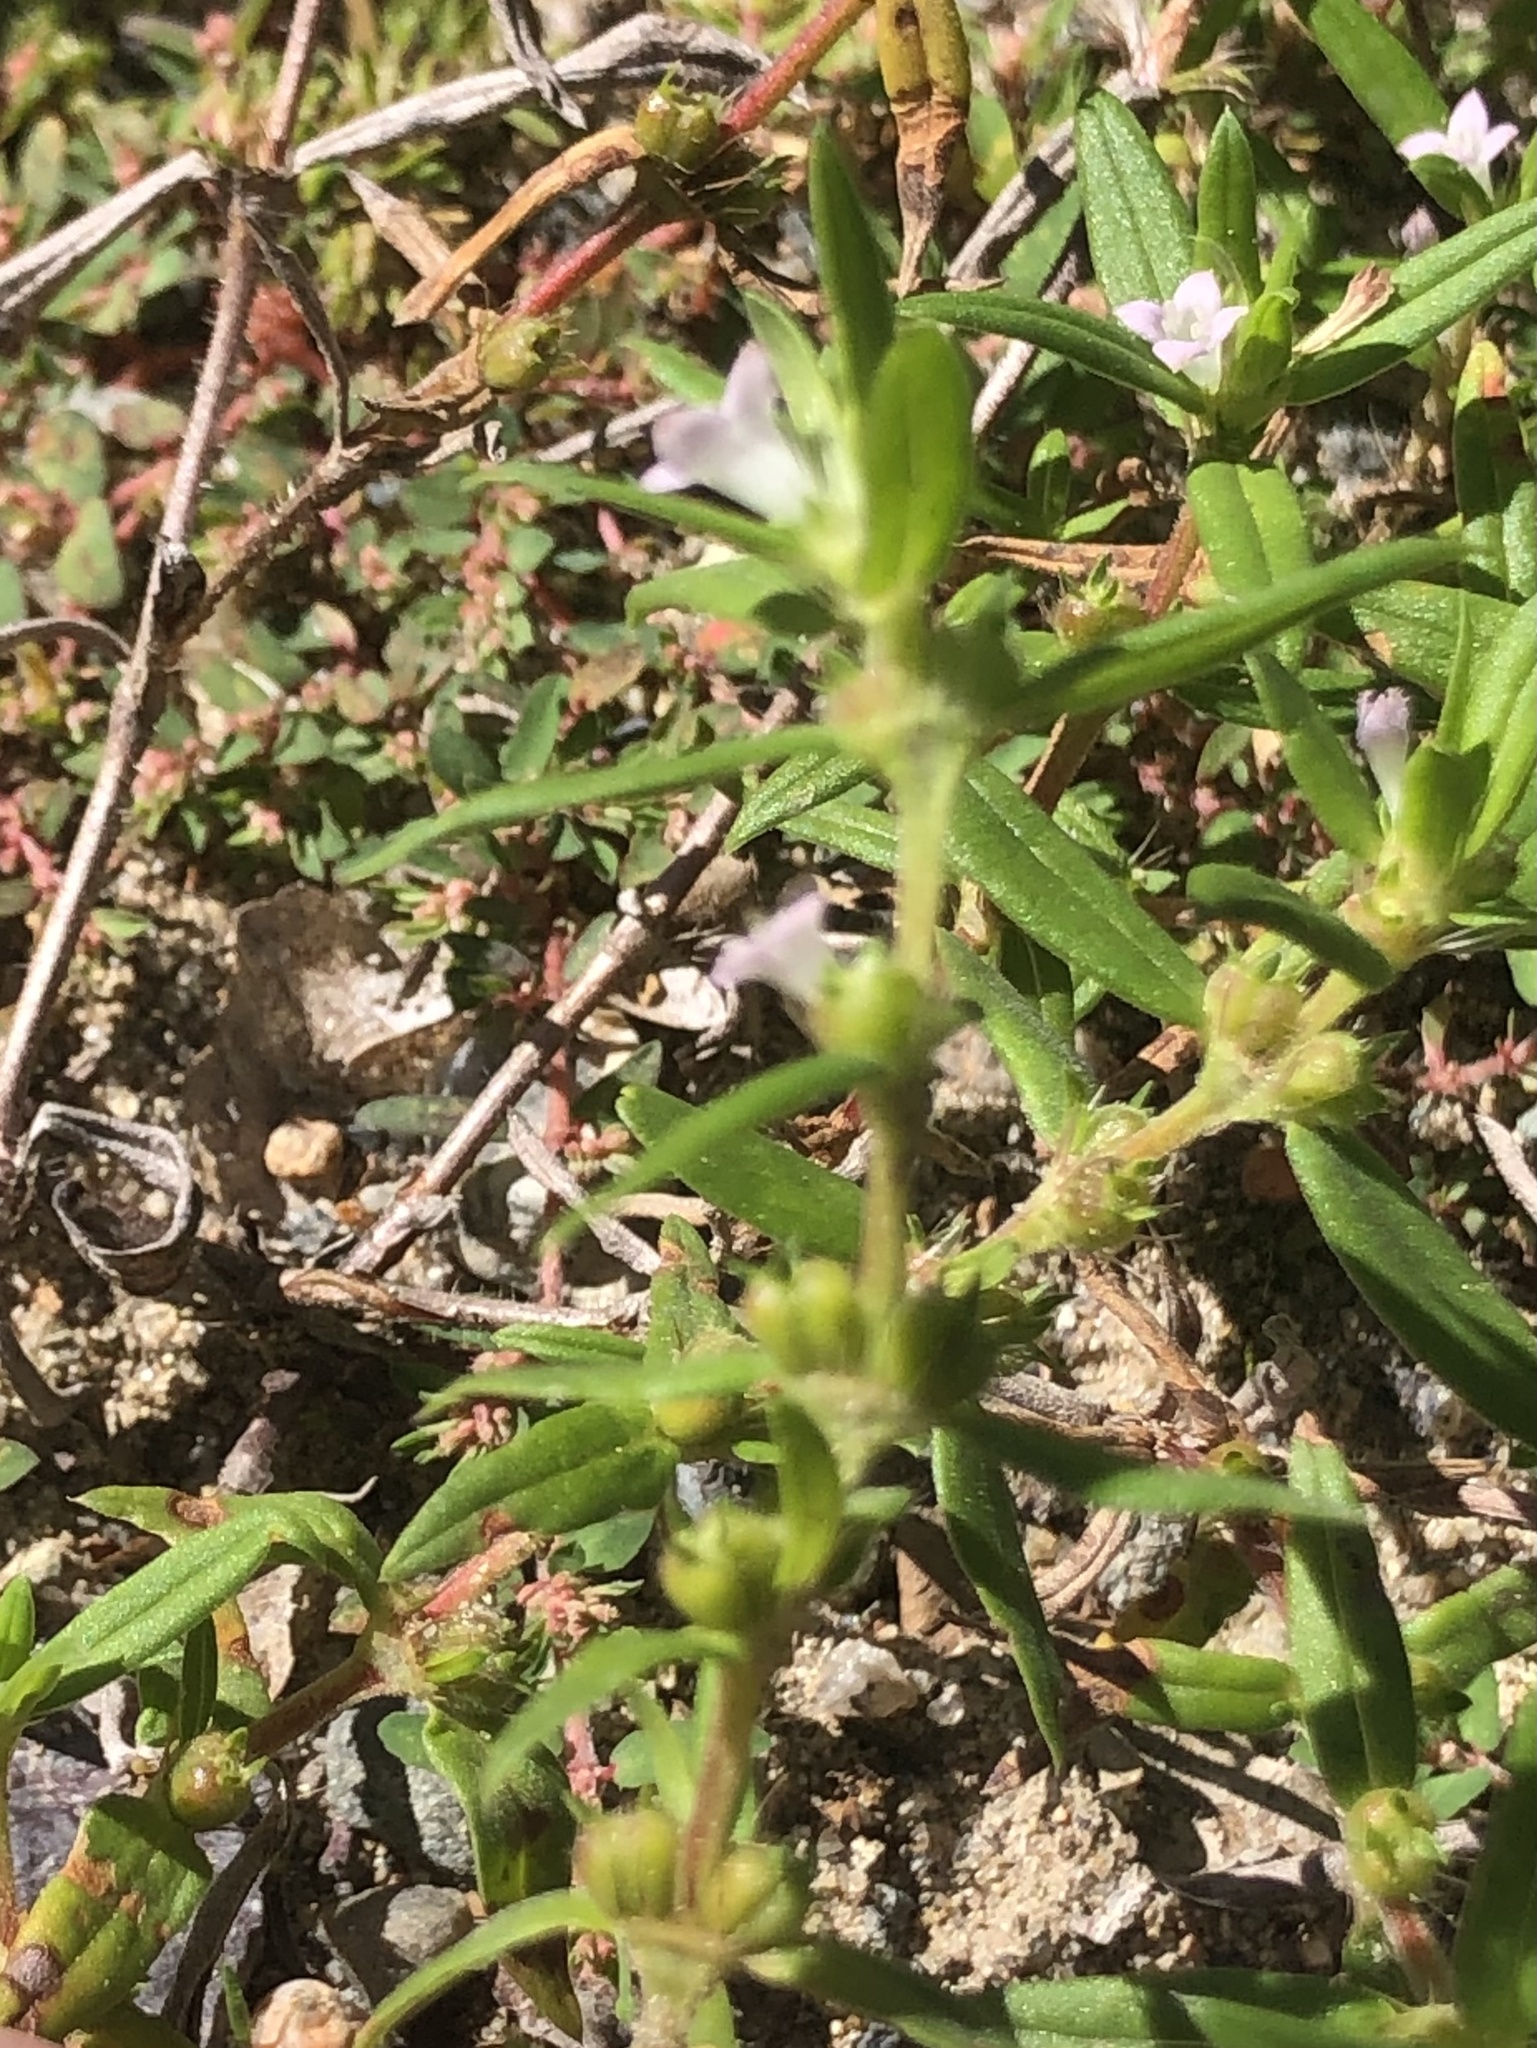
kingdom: Plantae
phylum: Tracheophyta
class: Magnoliopsida
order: Gentianales
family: Rubiaceae
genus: Hexasepalum
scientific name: Hexasepalum teres
